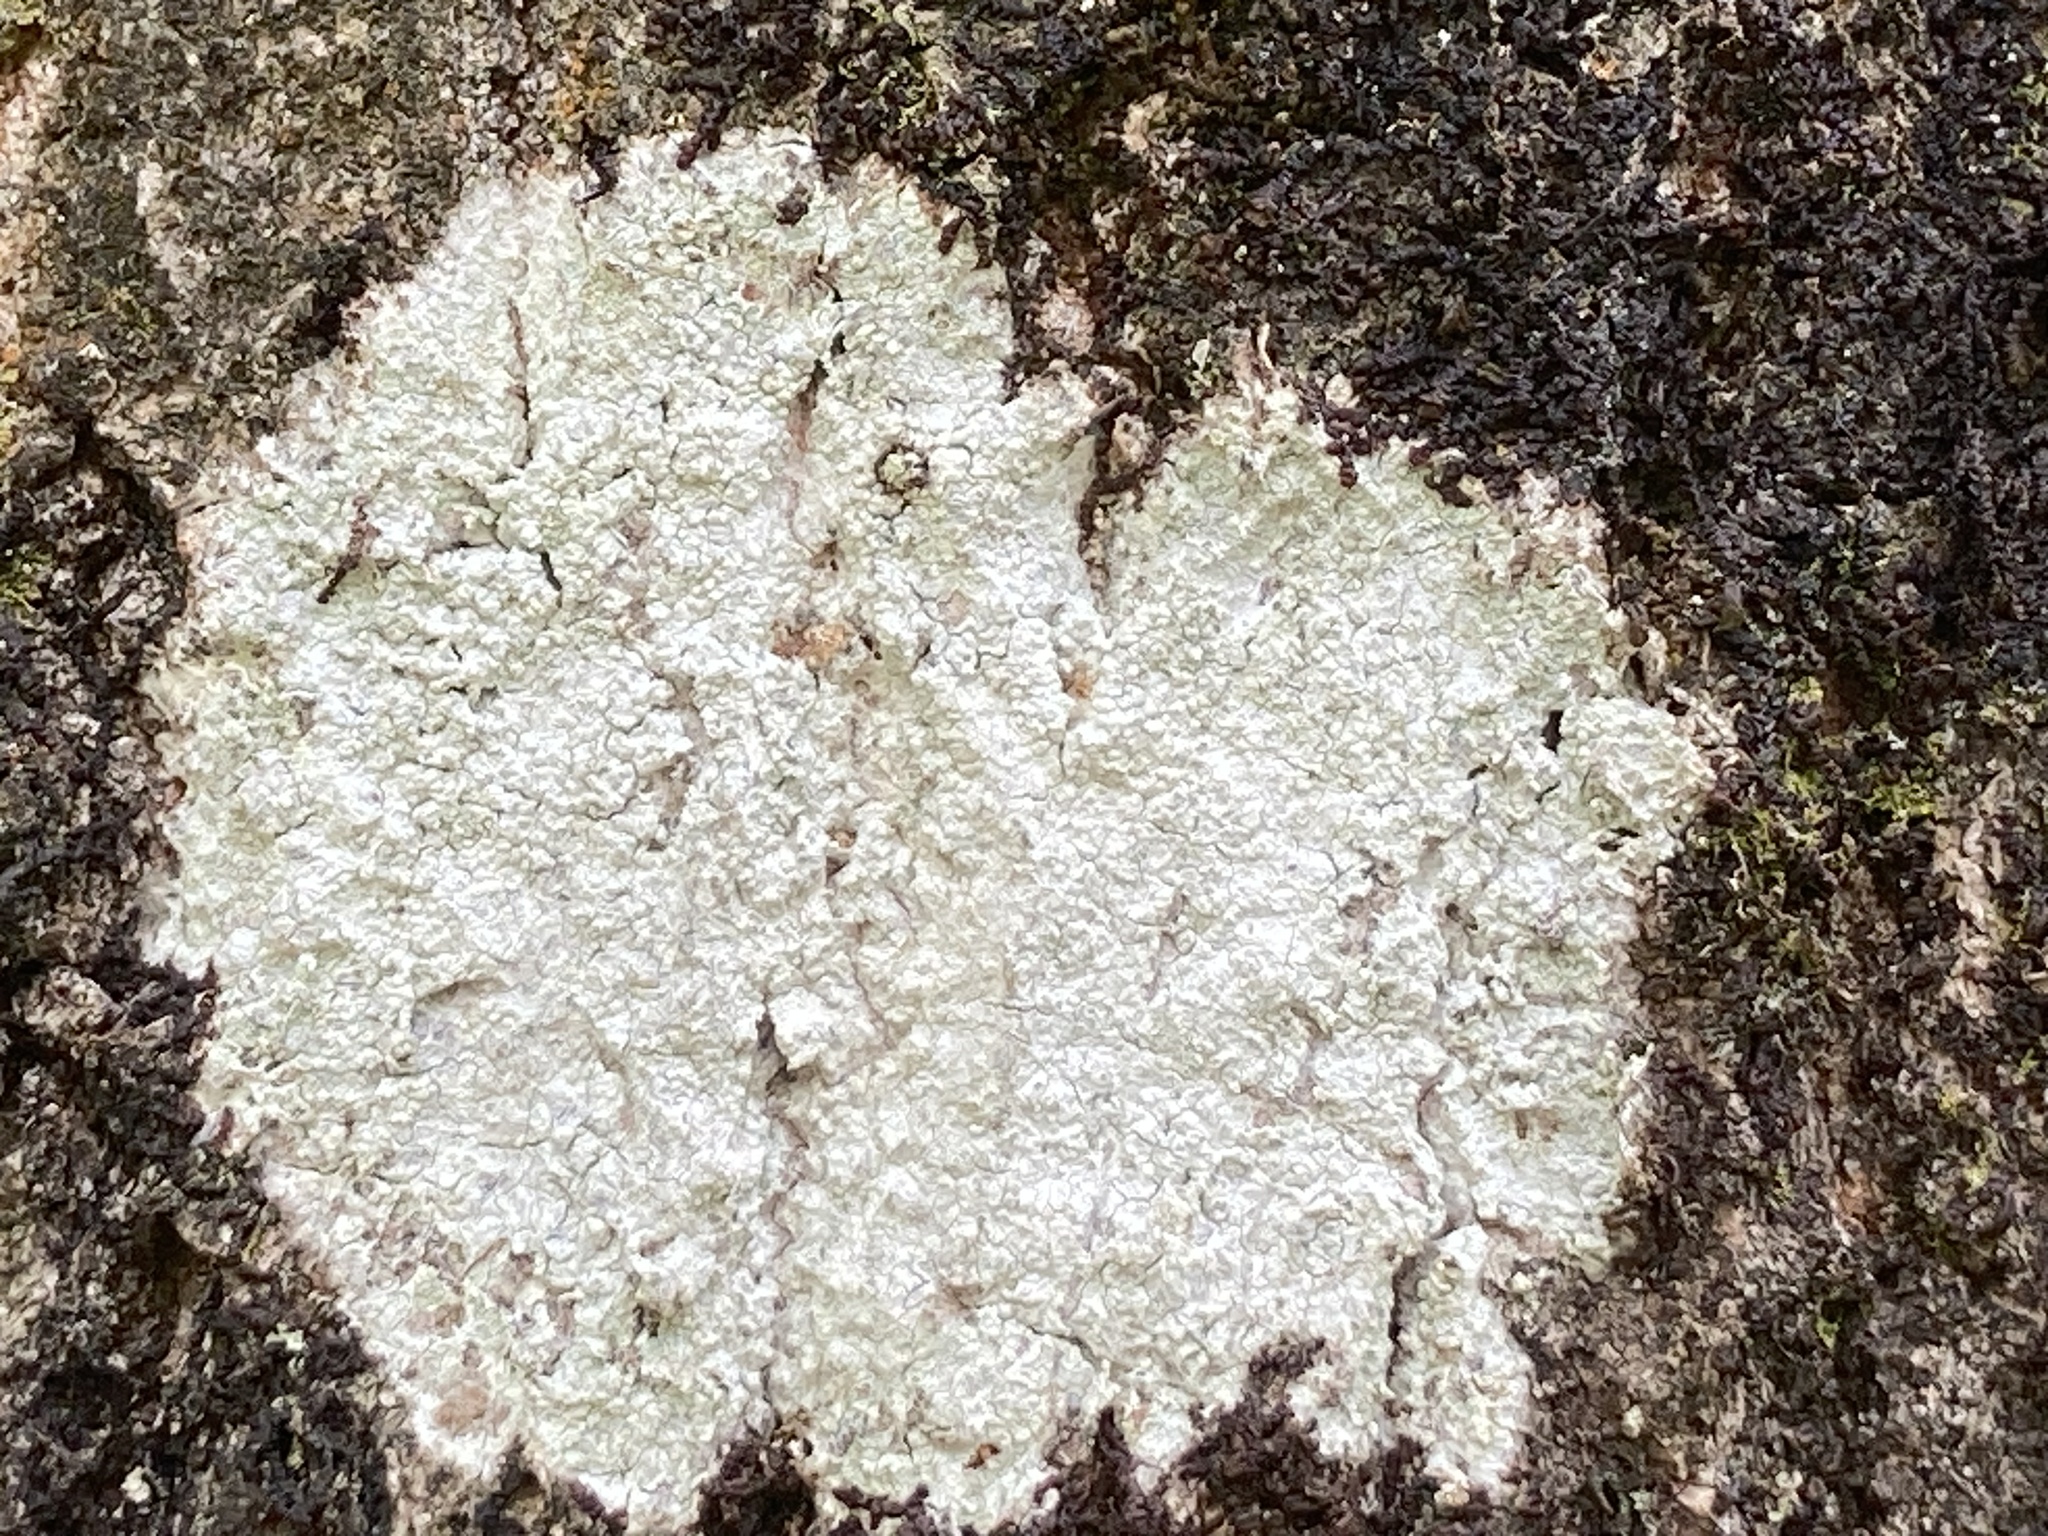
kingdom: Fungi
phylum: Ascomycota
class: Lecanoromycetes
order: Ostropales
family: Phlyctidaceae
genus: Phlyctis
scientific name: Phlyctis argena
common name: Whitewash lichen
